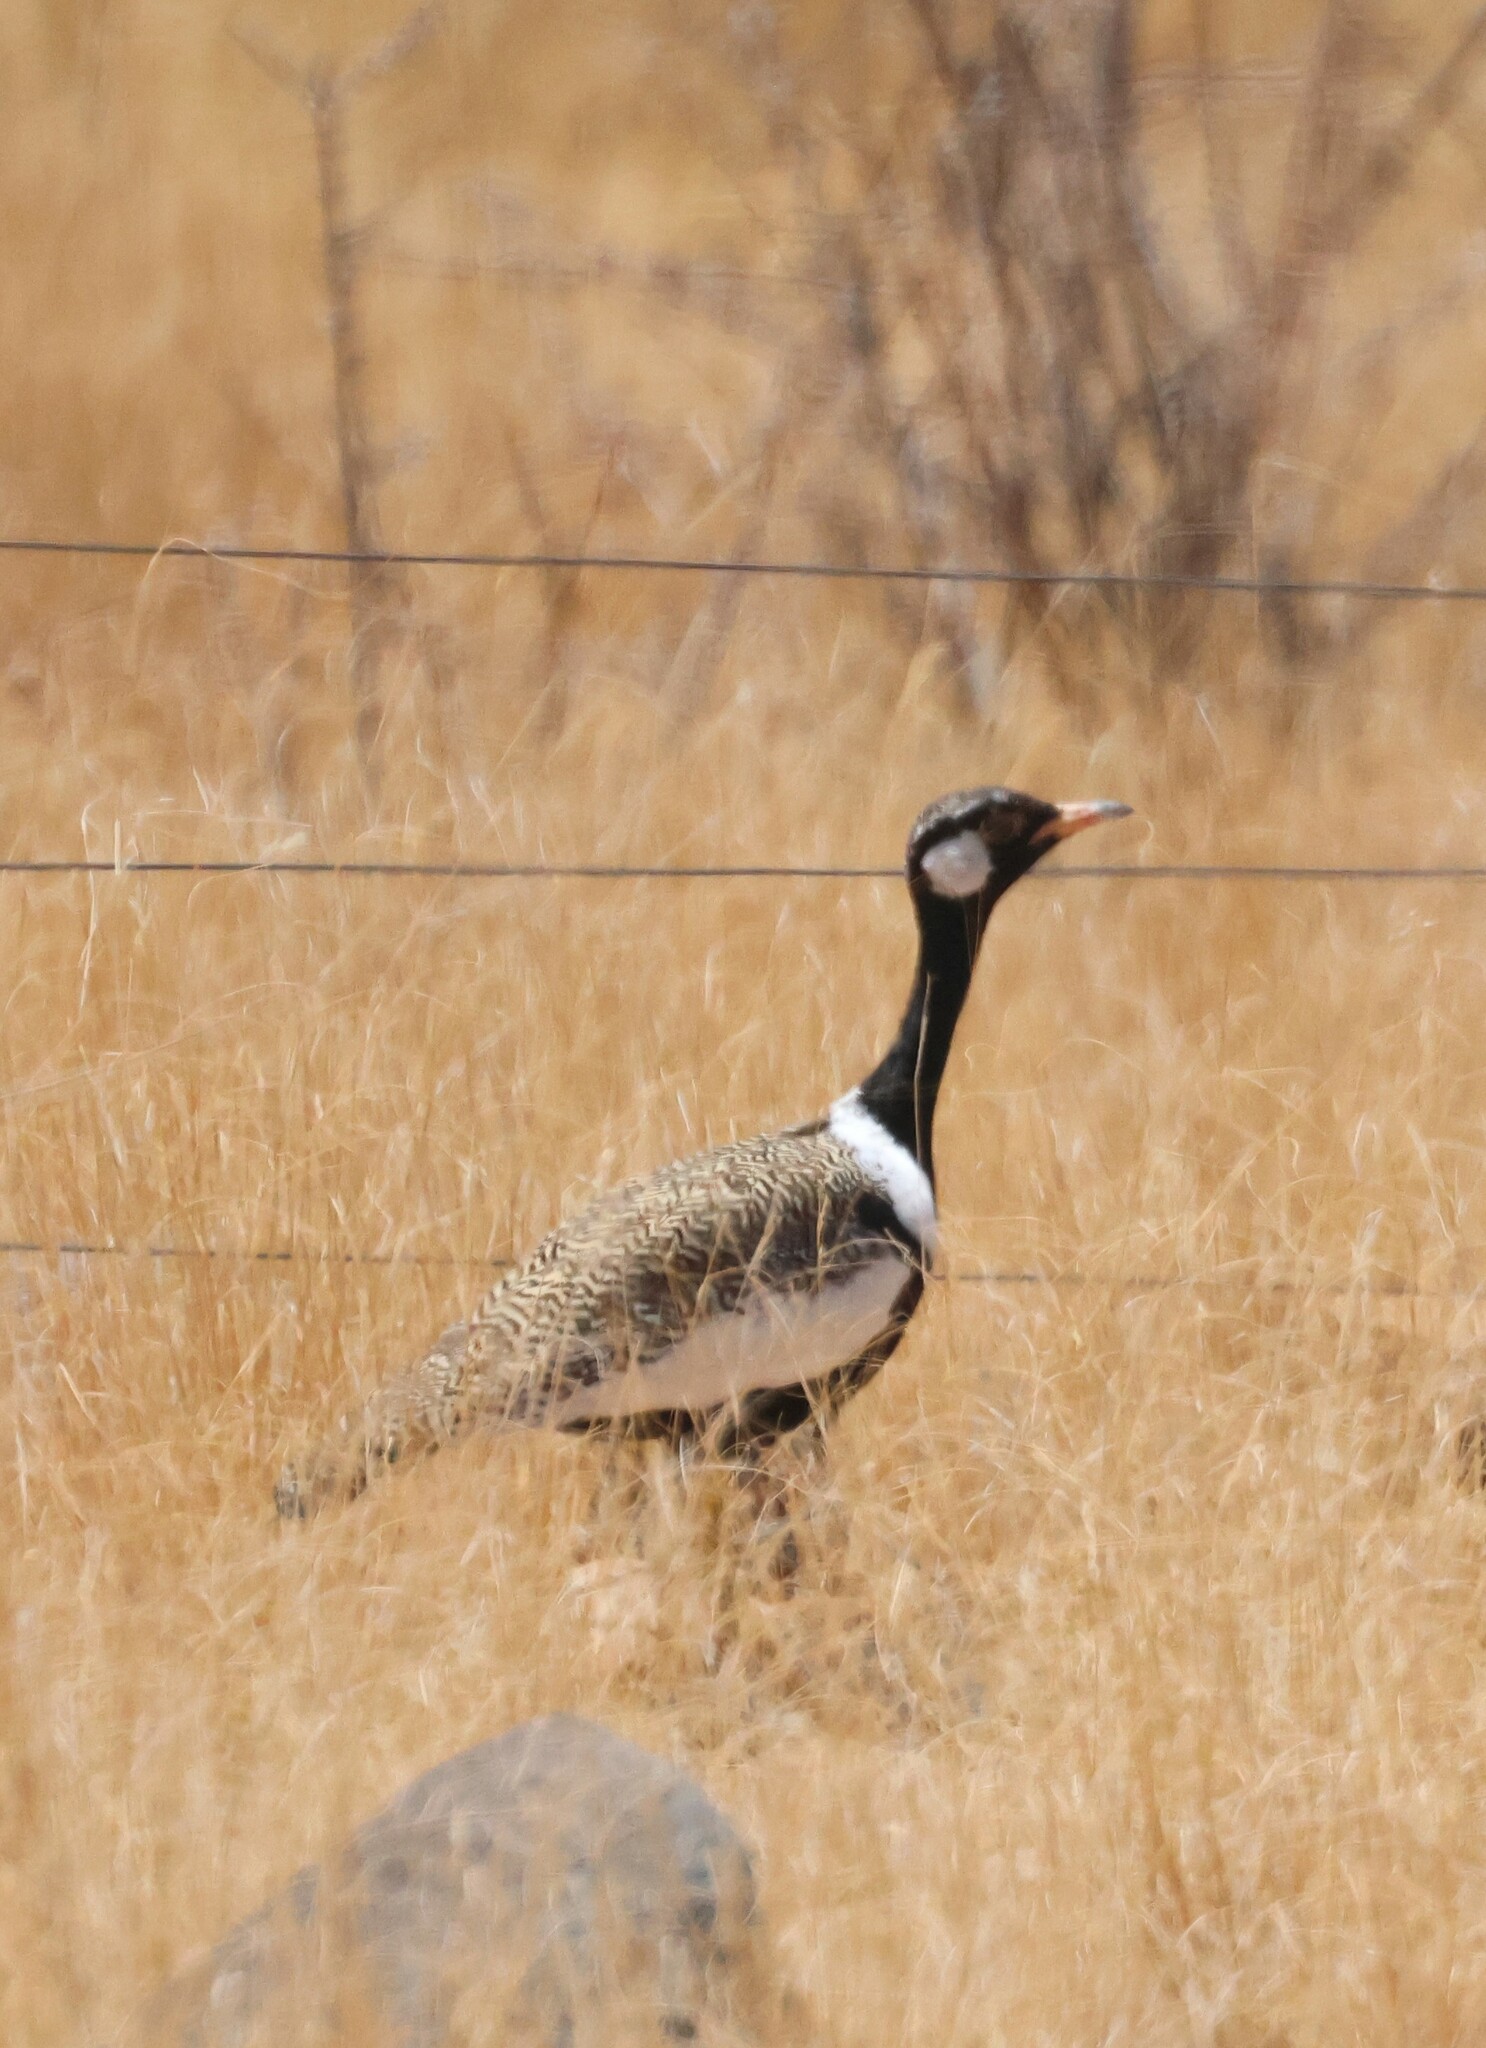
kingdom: Animalia
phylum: Chordata
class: Aves
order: Otidiformes
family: Otididae
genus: Afrotis
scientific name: Afrotis afraoides
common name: Northern black korhaan
